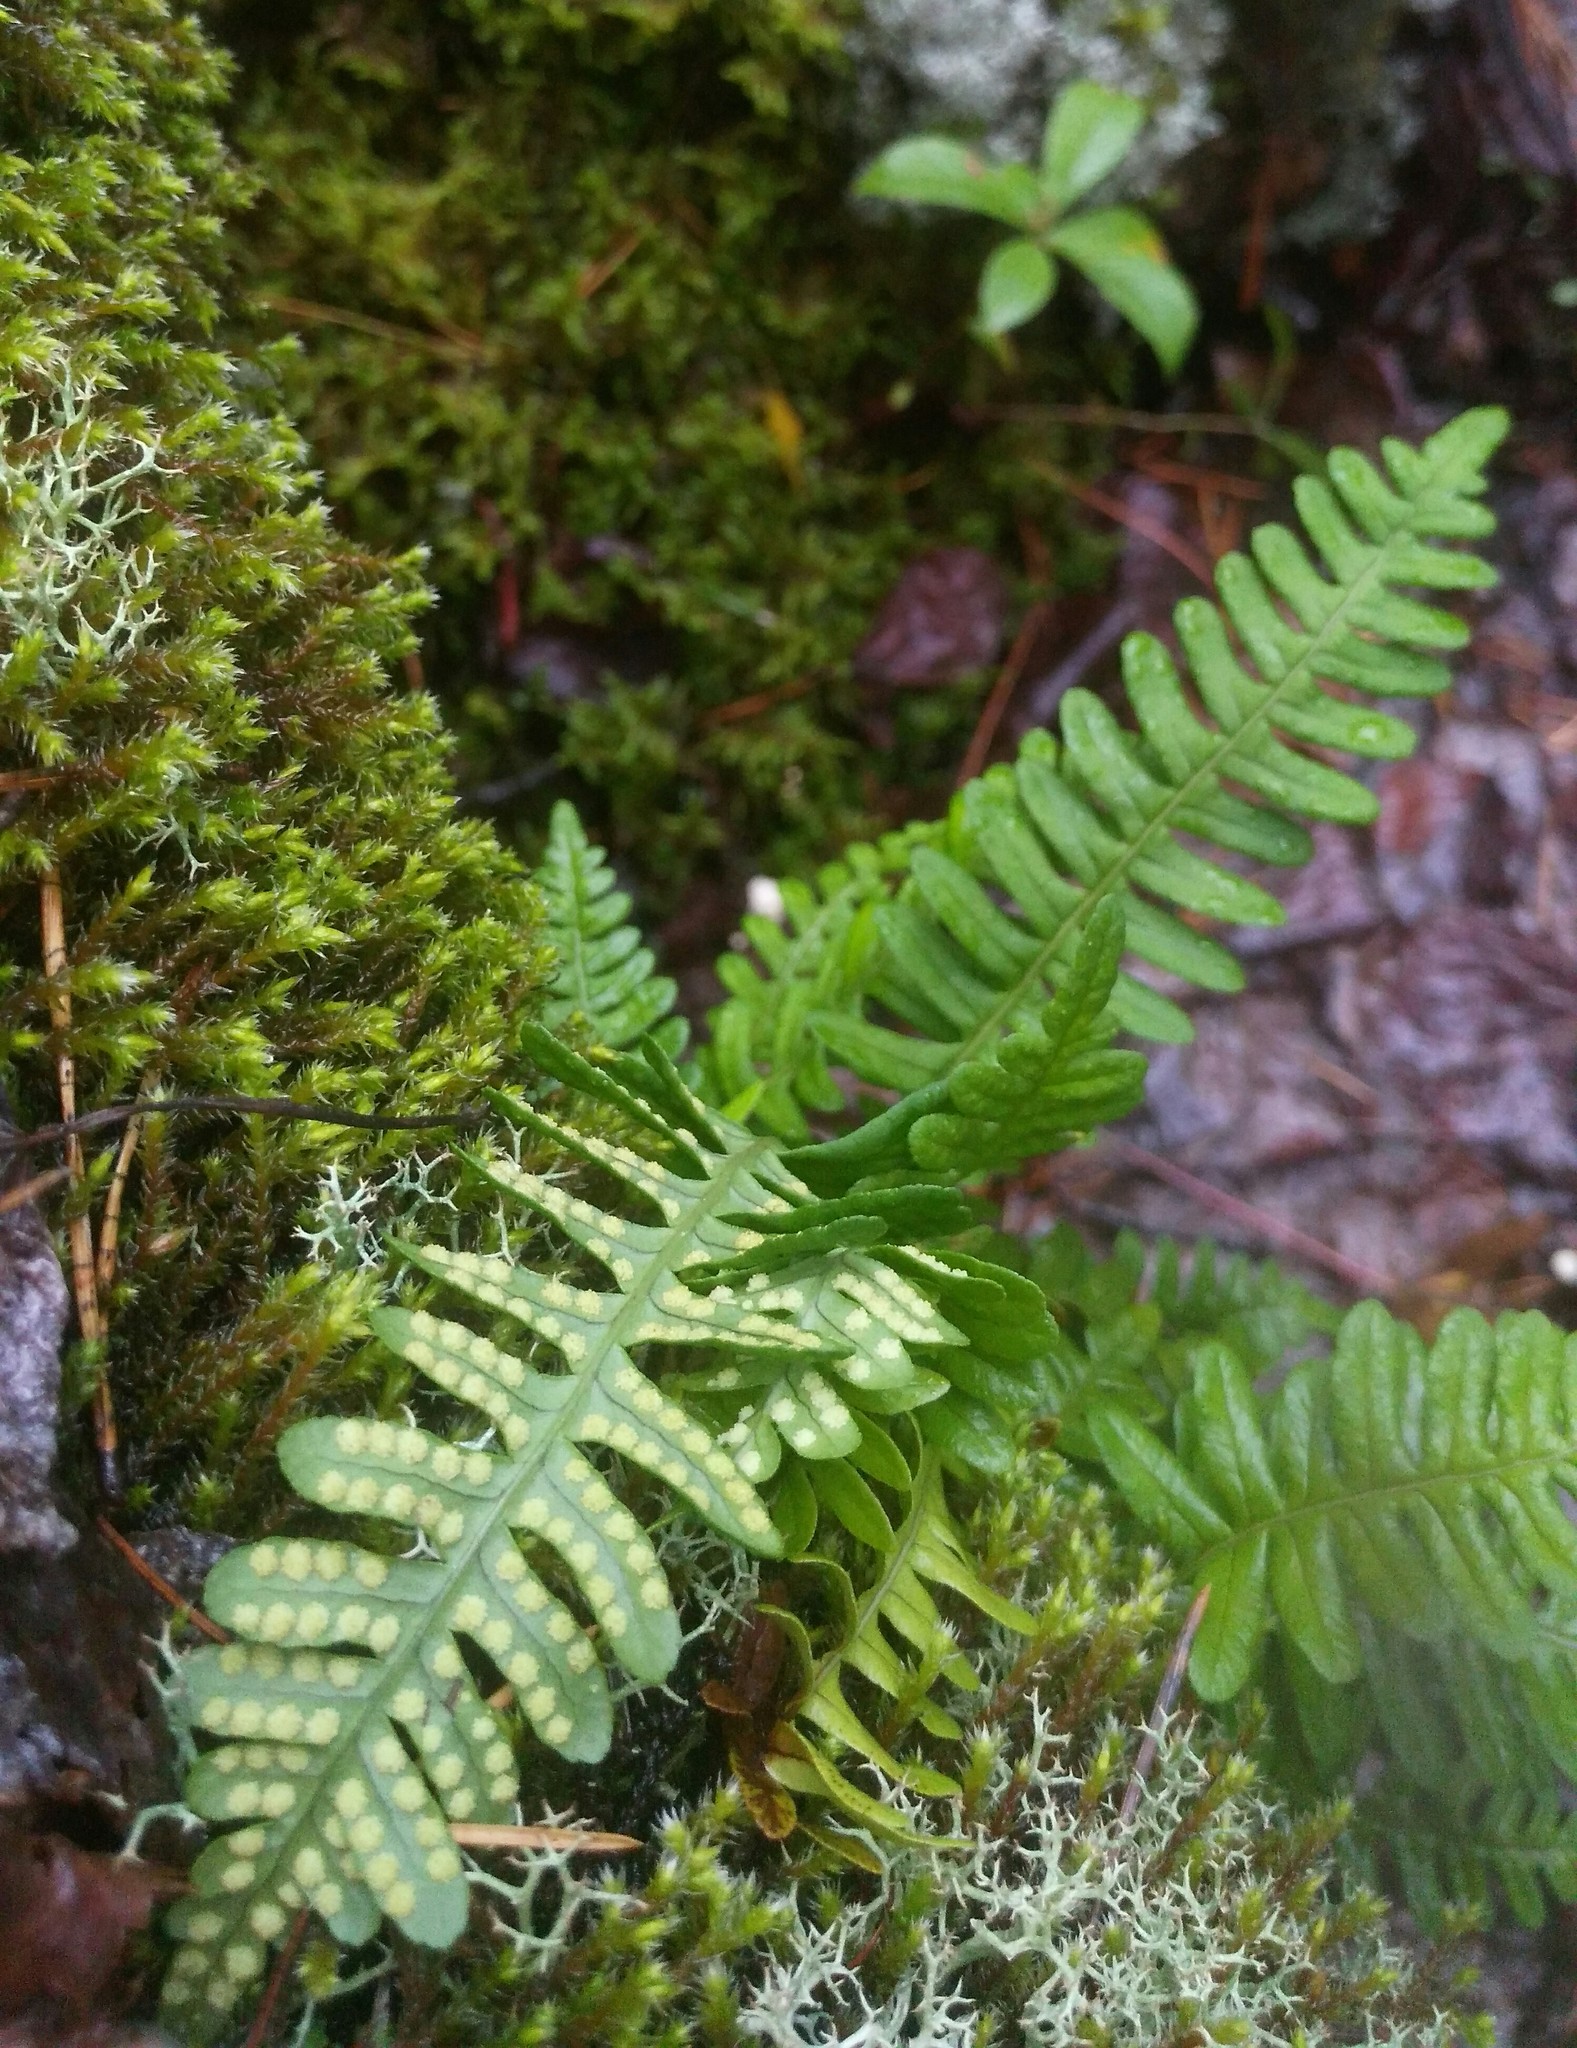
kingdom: Plantae
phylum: Tracheophyta
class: Polypodiopsida
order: Polypodiales
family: Polypodiaceae
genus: Polypodium
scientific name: Polypodium sibiricum
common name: Siberian polypody
